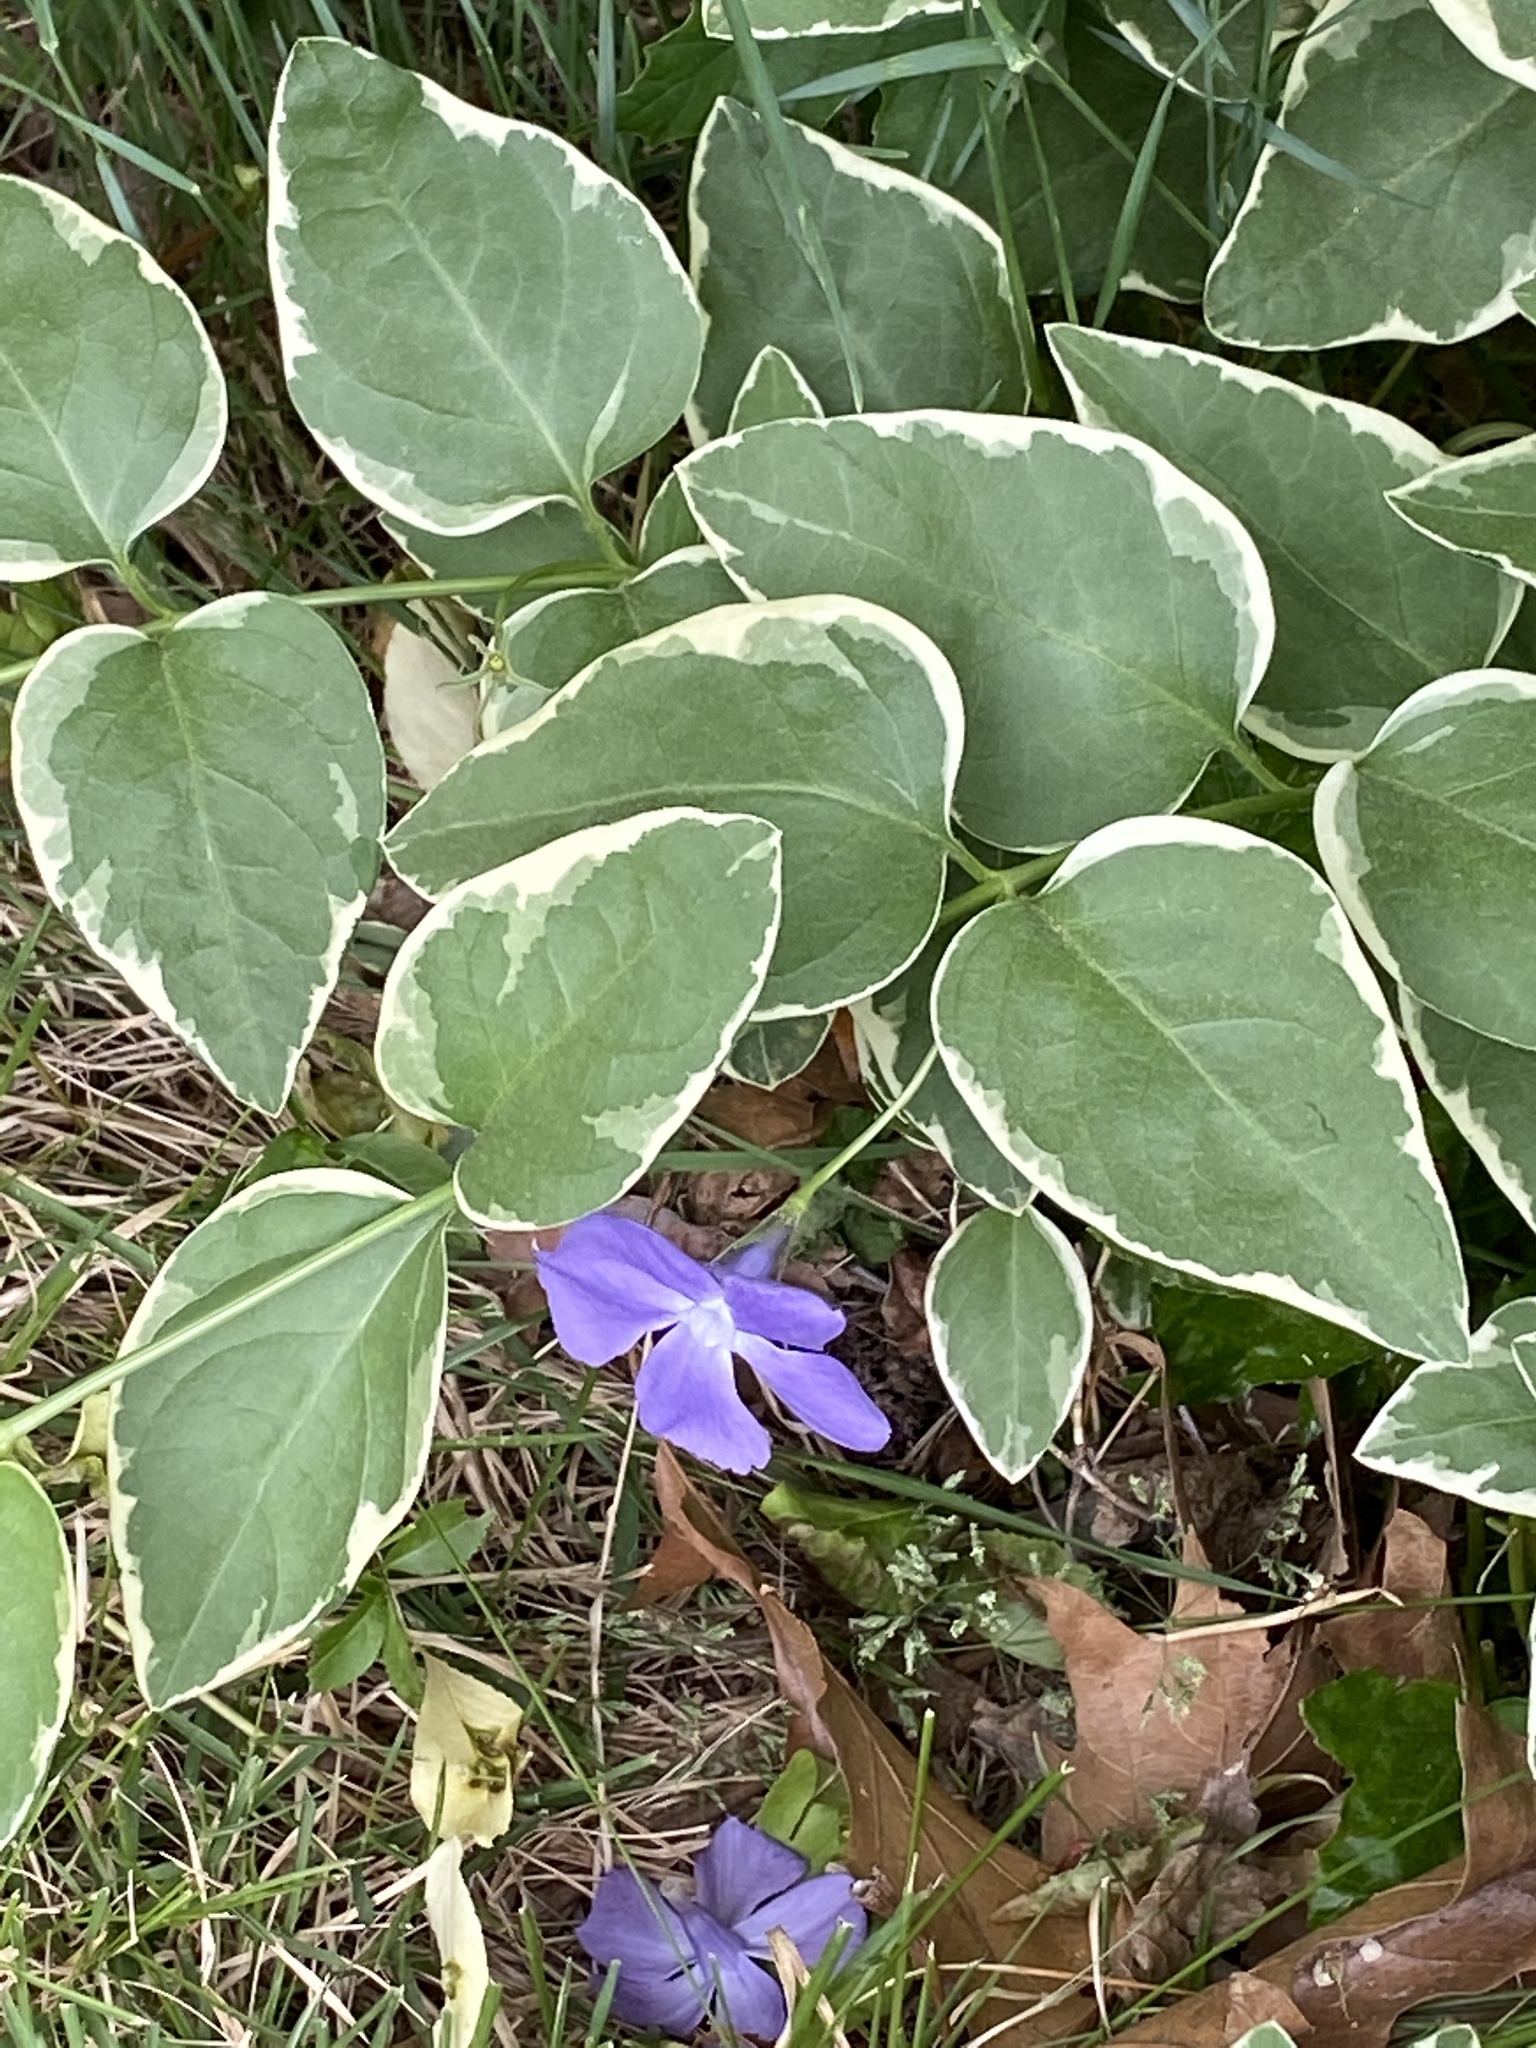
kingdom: Plantae
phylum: Tracheophyta
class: Magnoliopsida
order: Gentianales
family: Apocynaceae
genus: Vinca
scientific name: Vinca major
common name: Greater periwinkle
